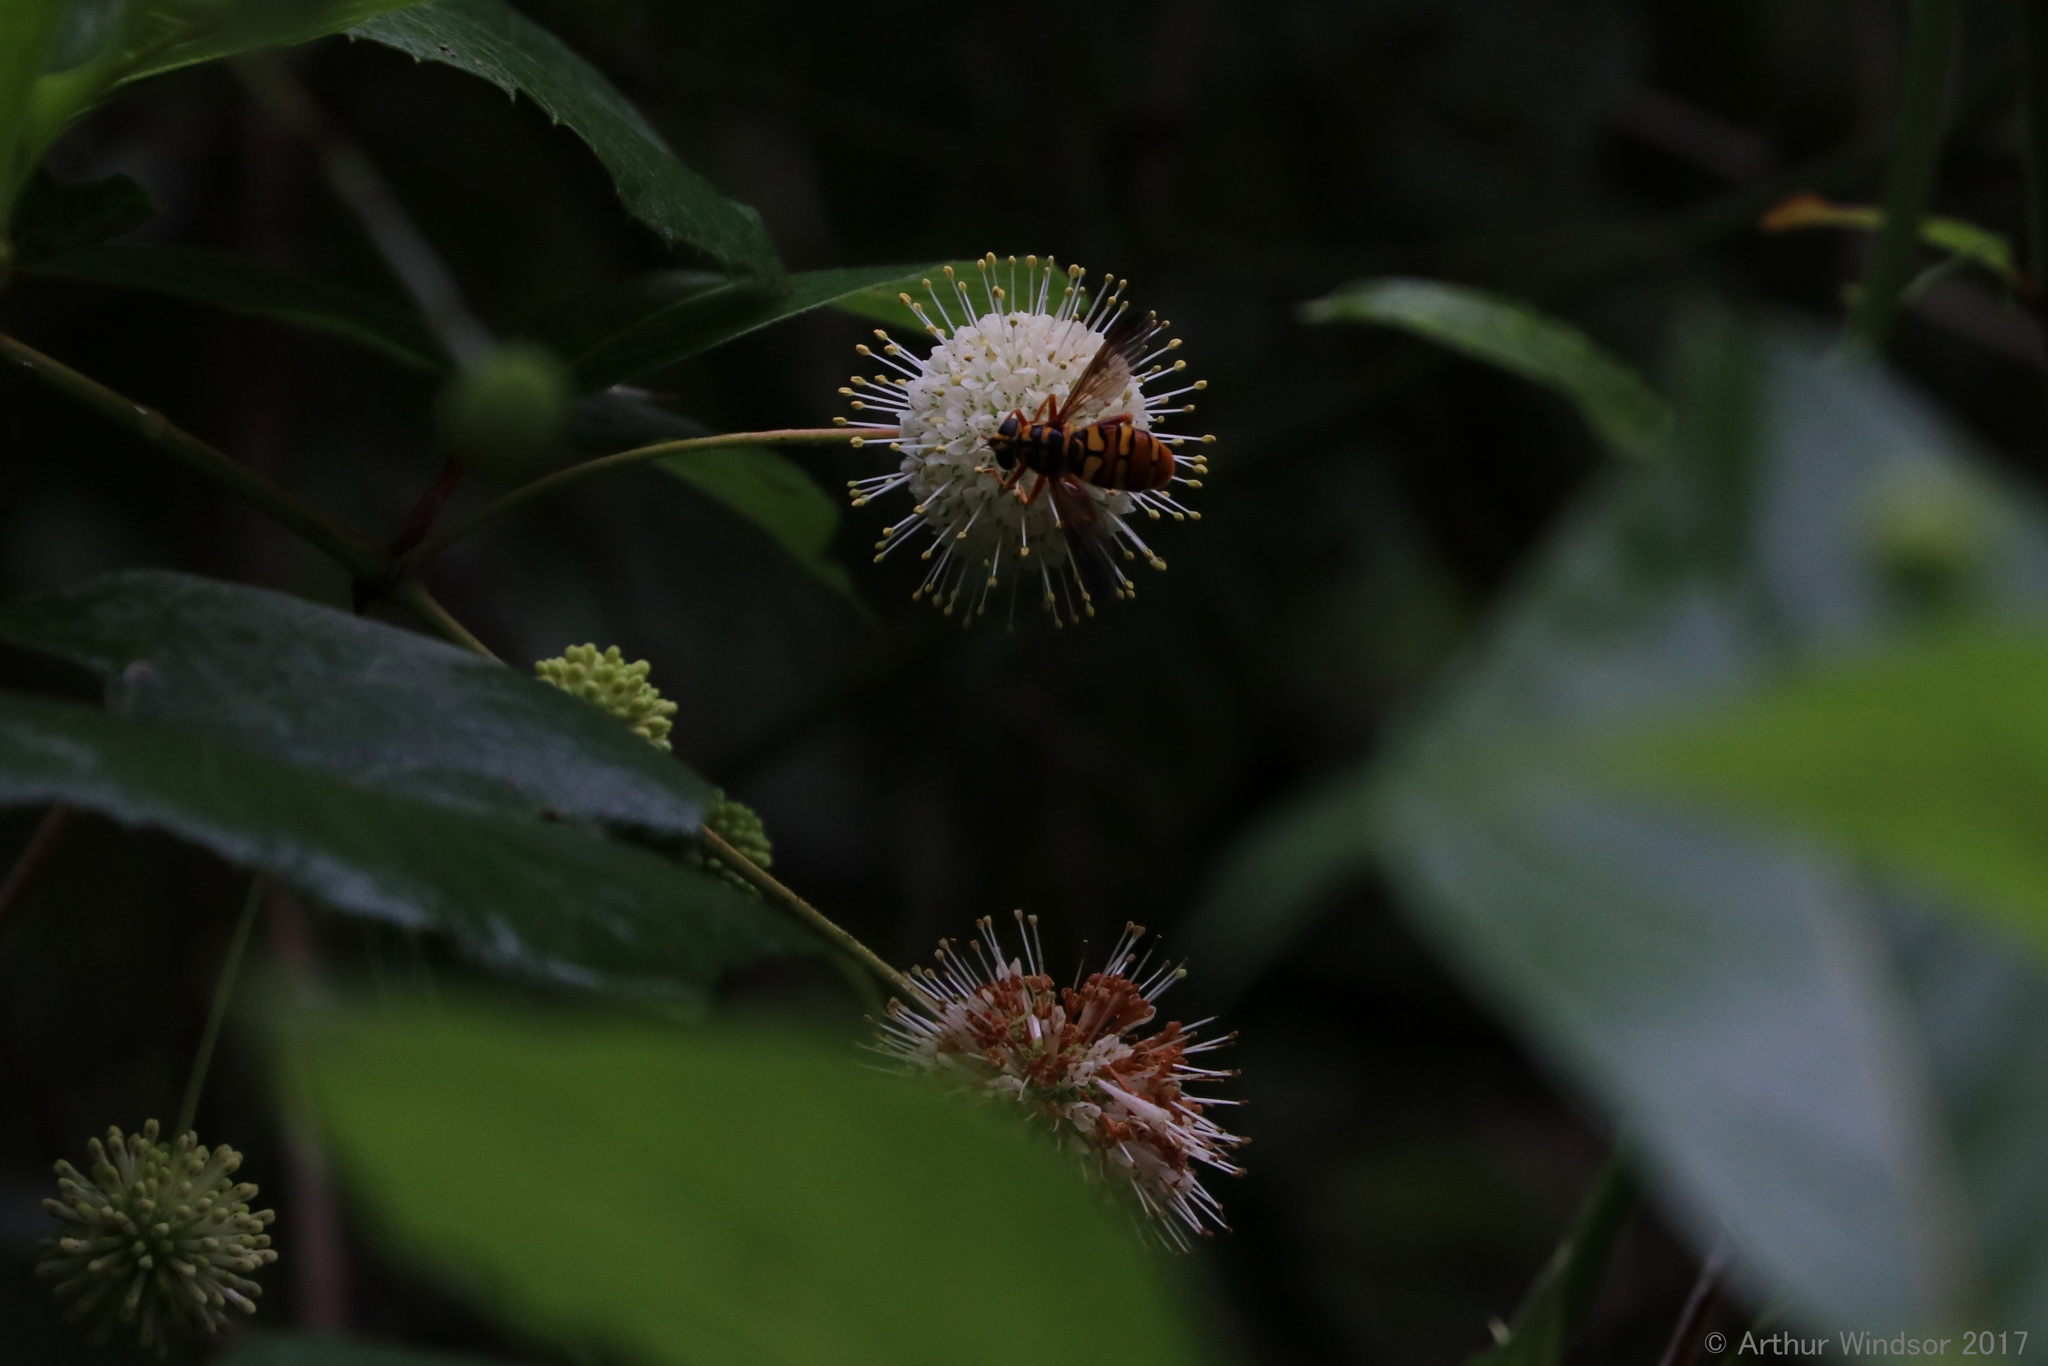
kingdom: Animalia
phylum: Arthropoda
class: Insecta
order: Diptera
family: Syrphidae
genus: Milesia
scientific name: Milesia virginiensis
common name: Virginia giant
